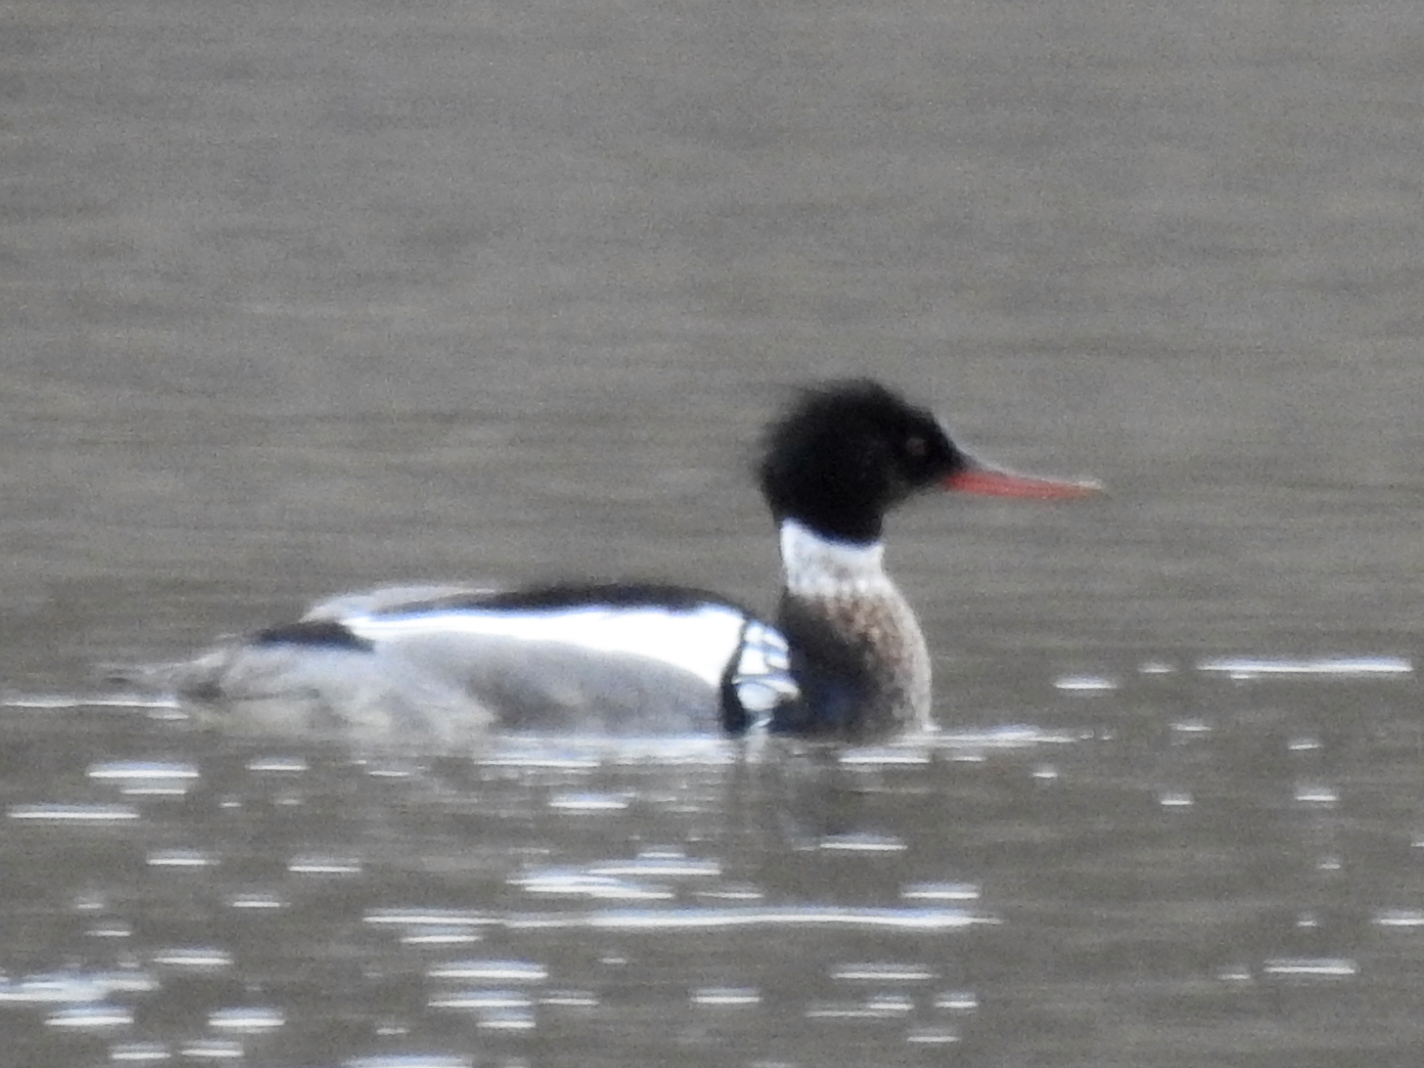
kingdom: Animalia
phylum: Chordata
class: Aves
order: Anseriformes
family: Anatidae
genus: Mergus
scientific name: Mergus serrator
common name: Red-breasted merganser
